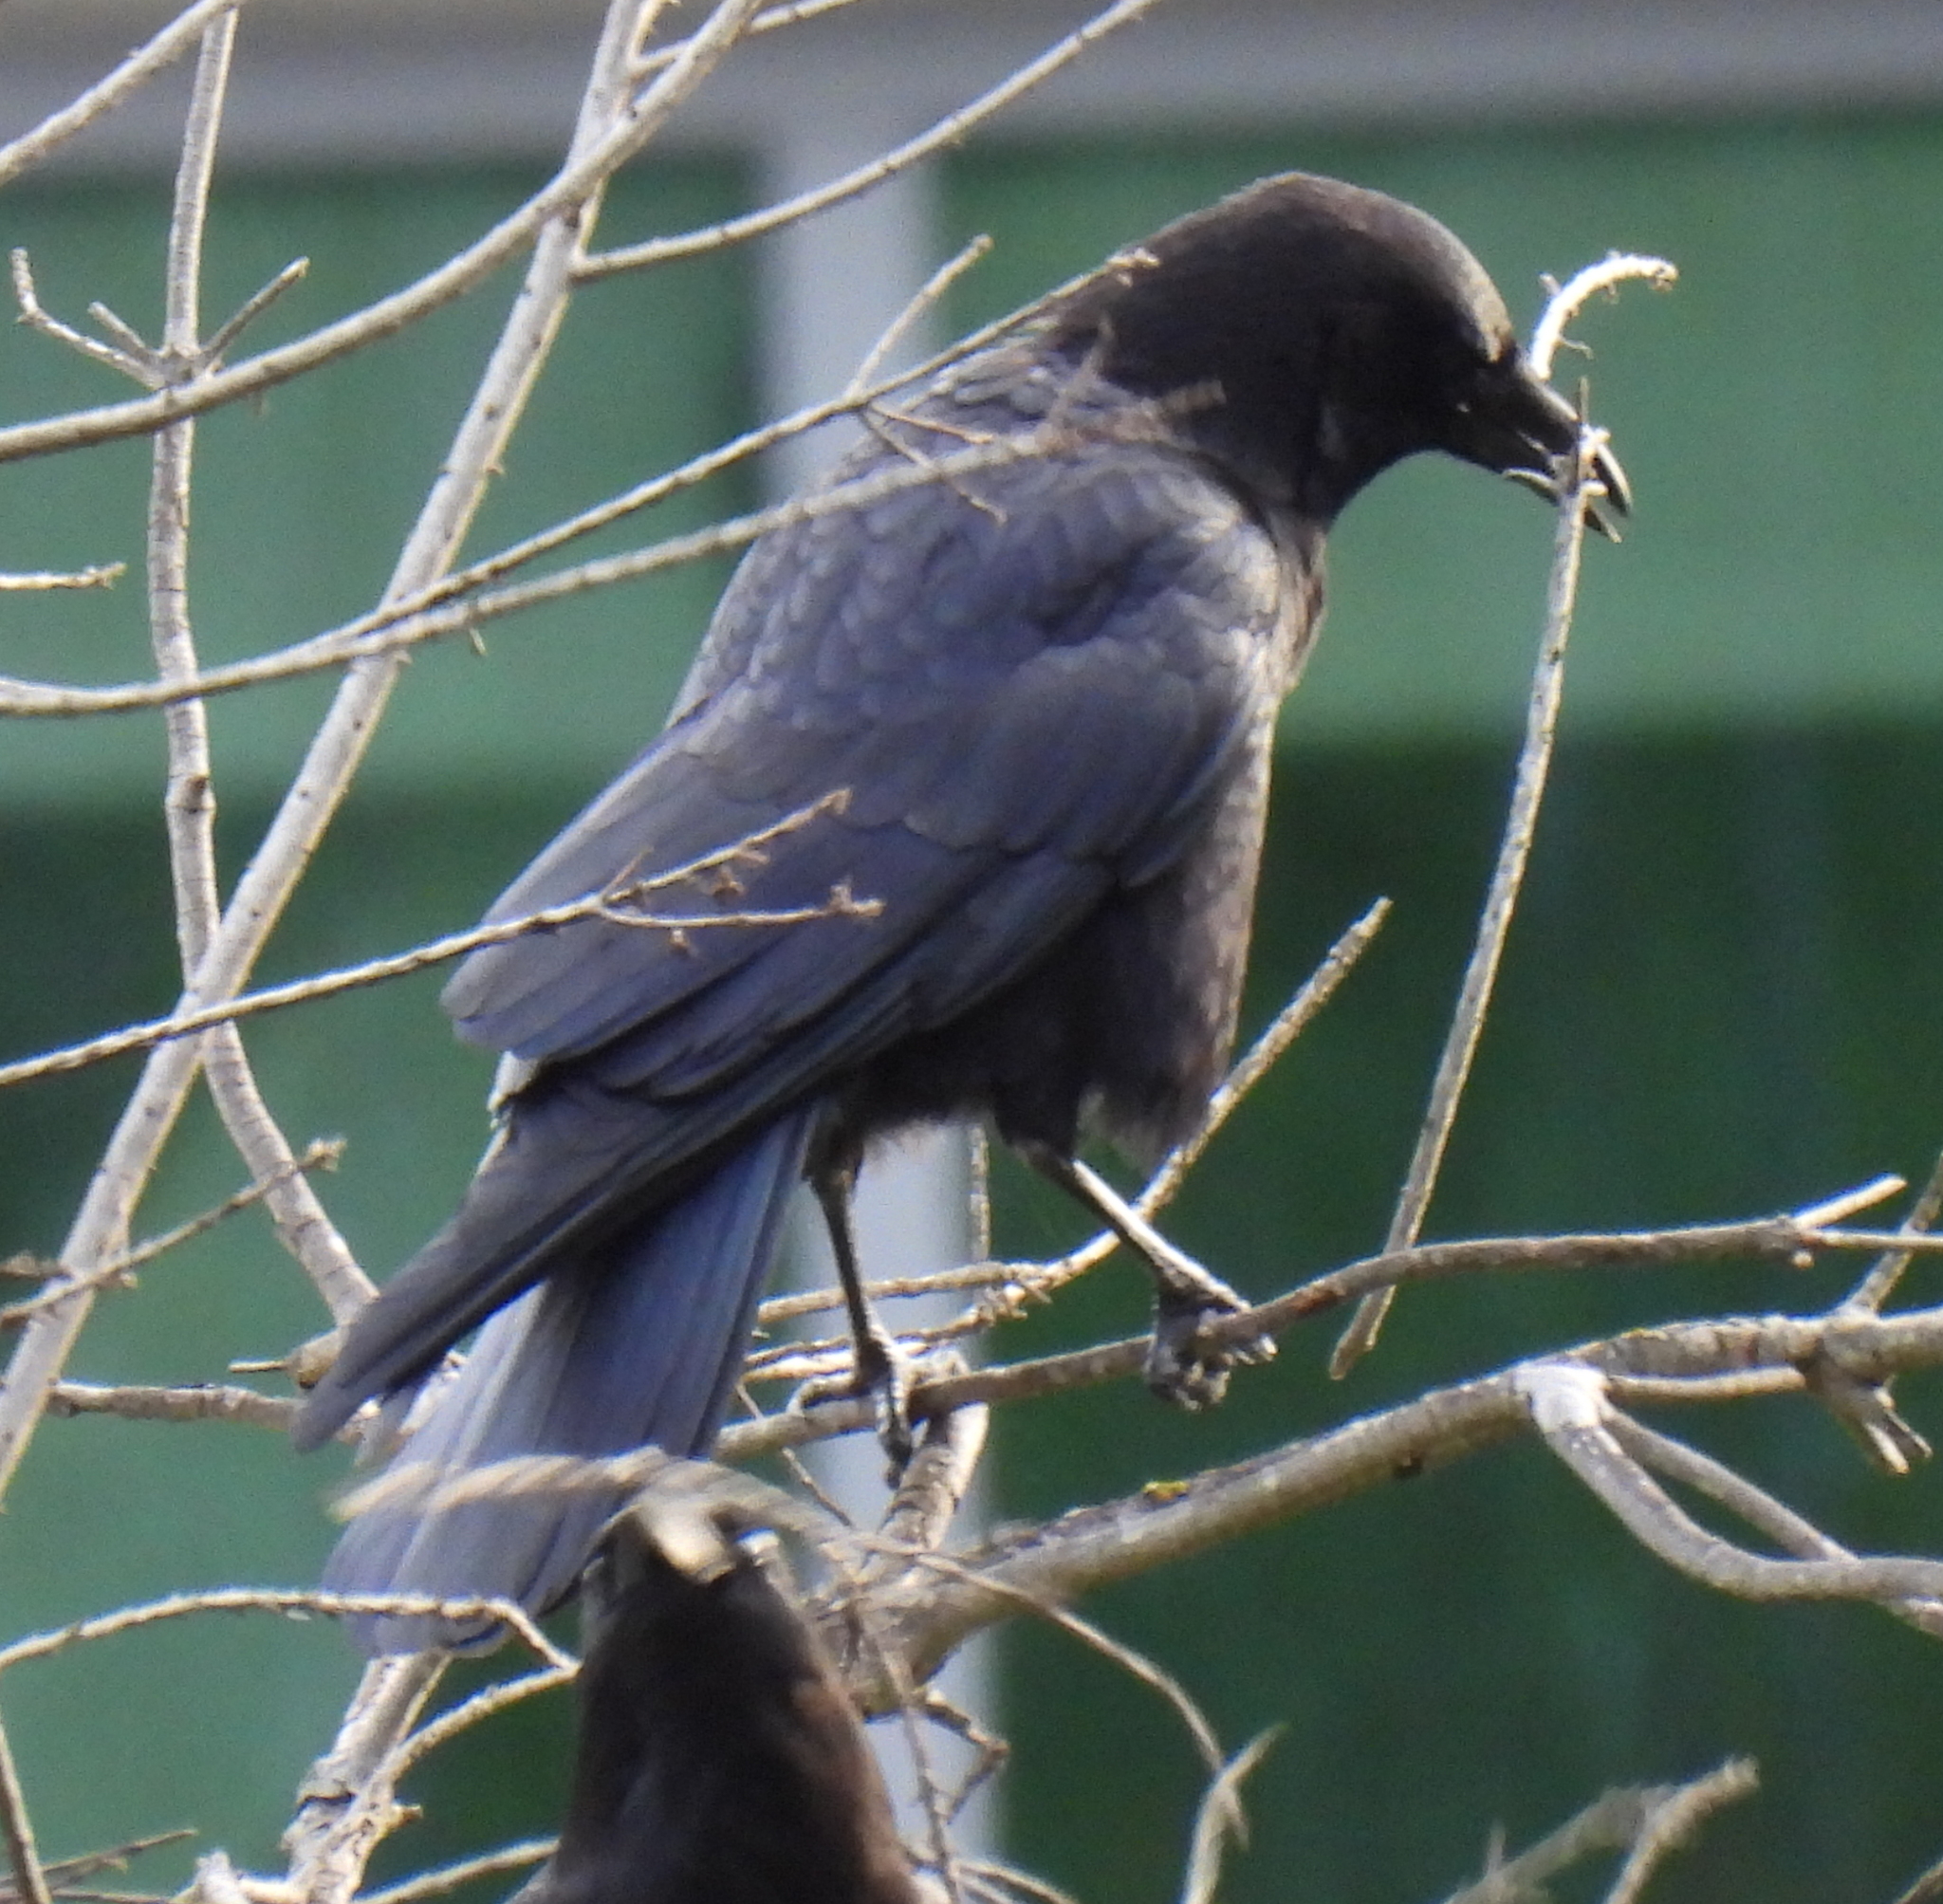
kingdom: Animalia
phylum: Chordata
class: Aves
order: Passeriformes
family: Corvidae
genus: Corvus
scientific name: Corvus brachyrhynchos
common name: American crow
